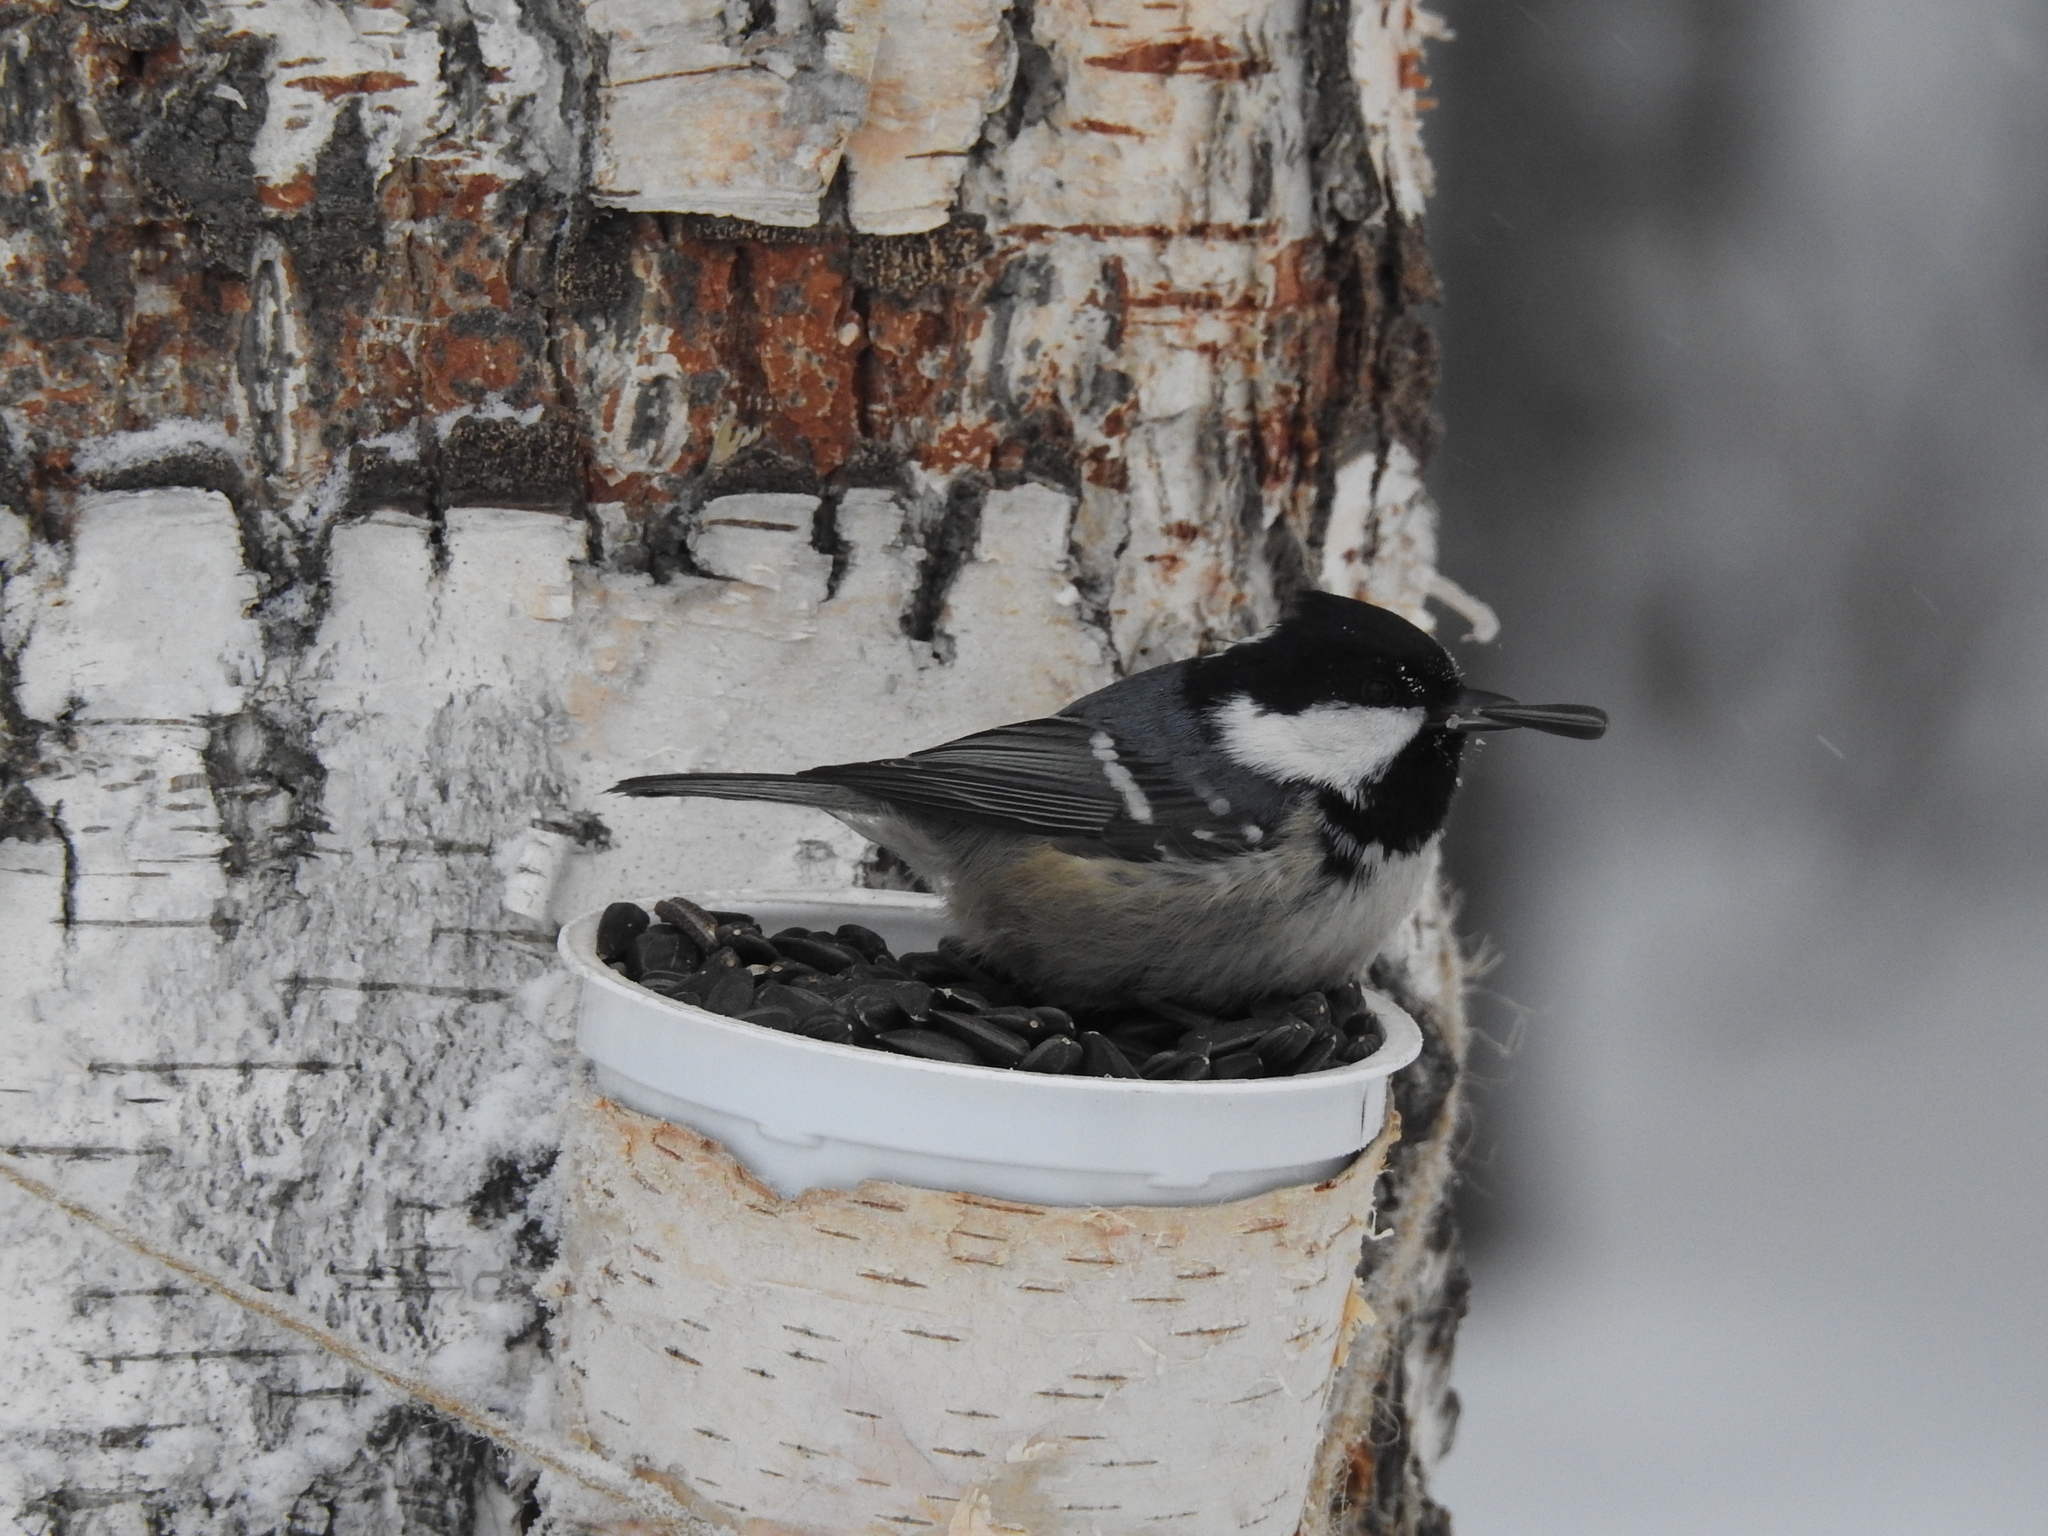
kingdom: Animalia
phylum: Chordata
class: Aves
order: Passeriformes
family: Paridae
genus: Periparus
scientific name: Periparus ater
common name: Coal tit
